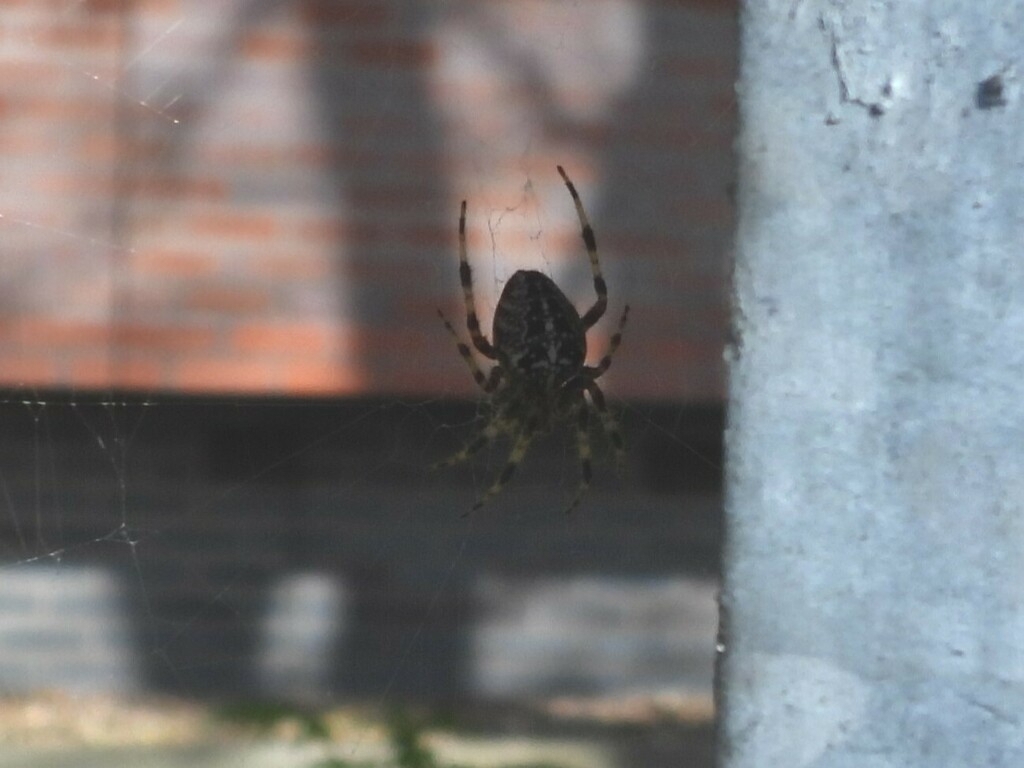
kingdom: Animalia
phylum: Arthropoda
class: Arachnida
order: Araneae
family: Araneidae
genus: Araneus
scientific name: Araneus diadematus
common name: Cross orbweaver
